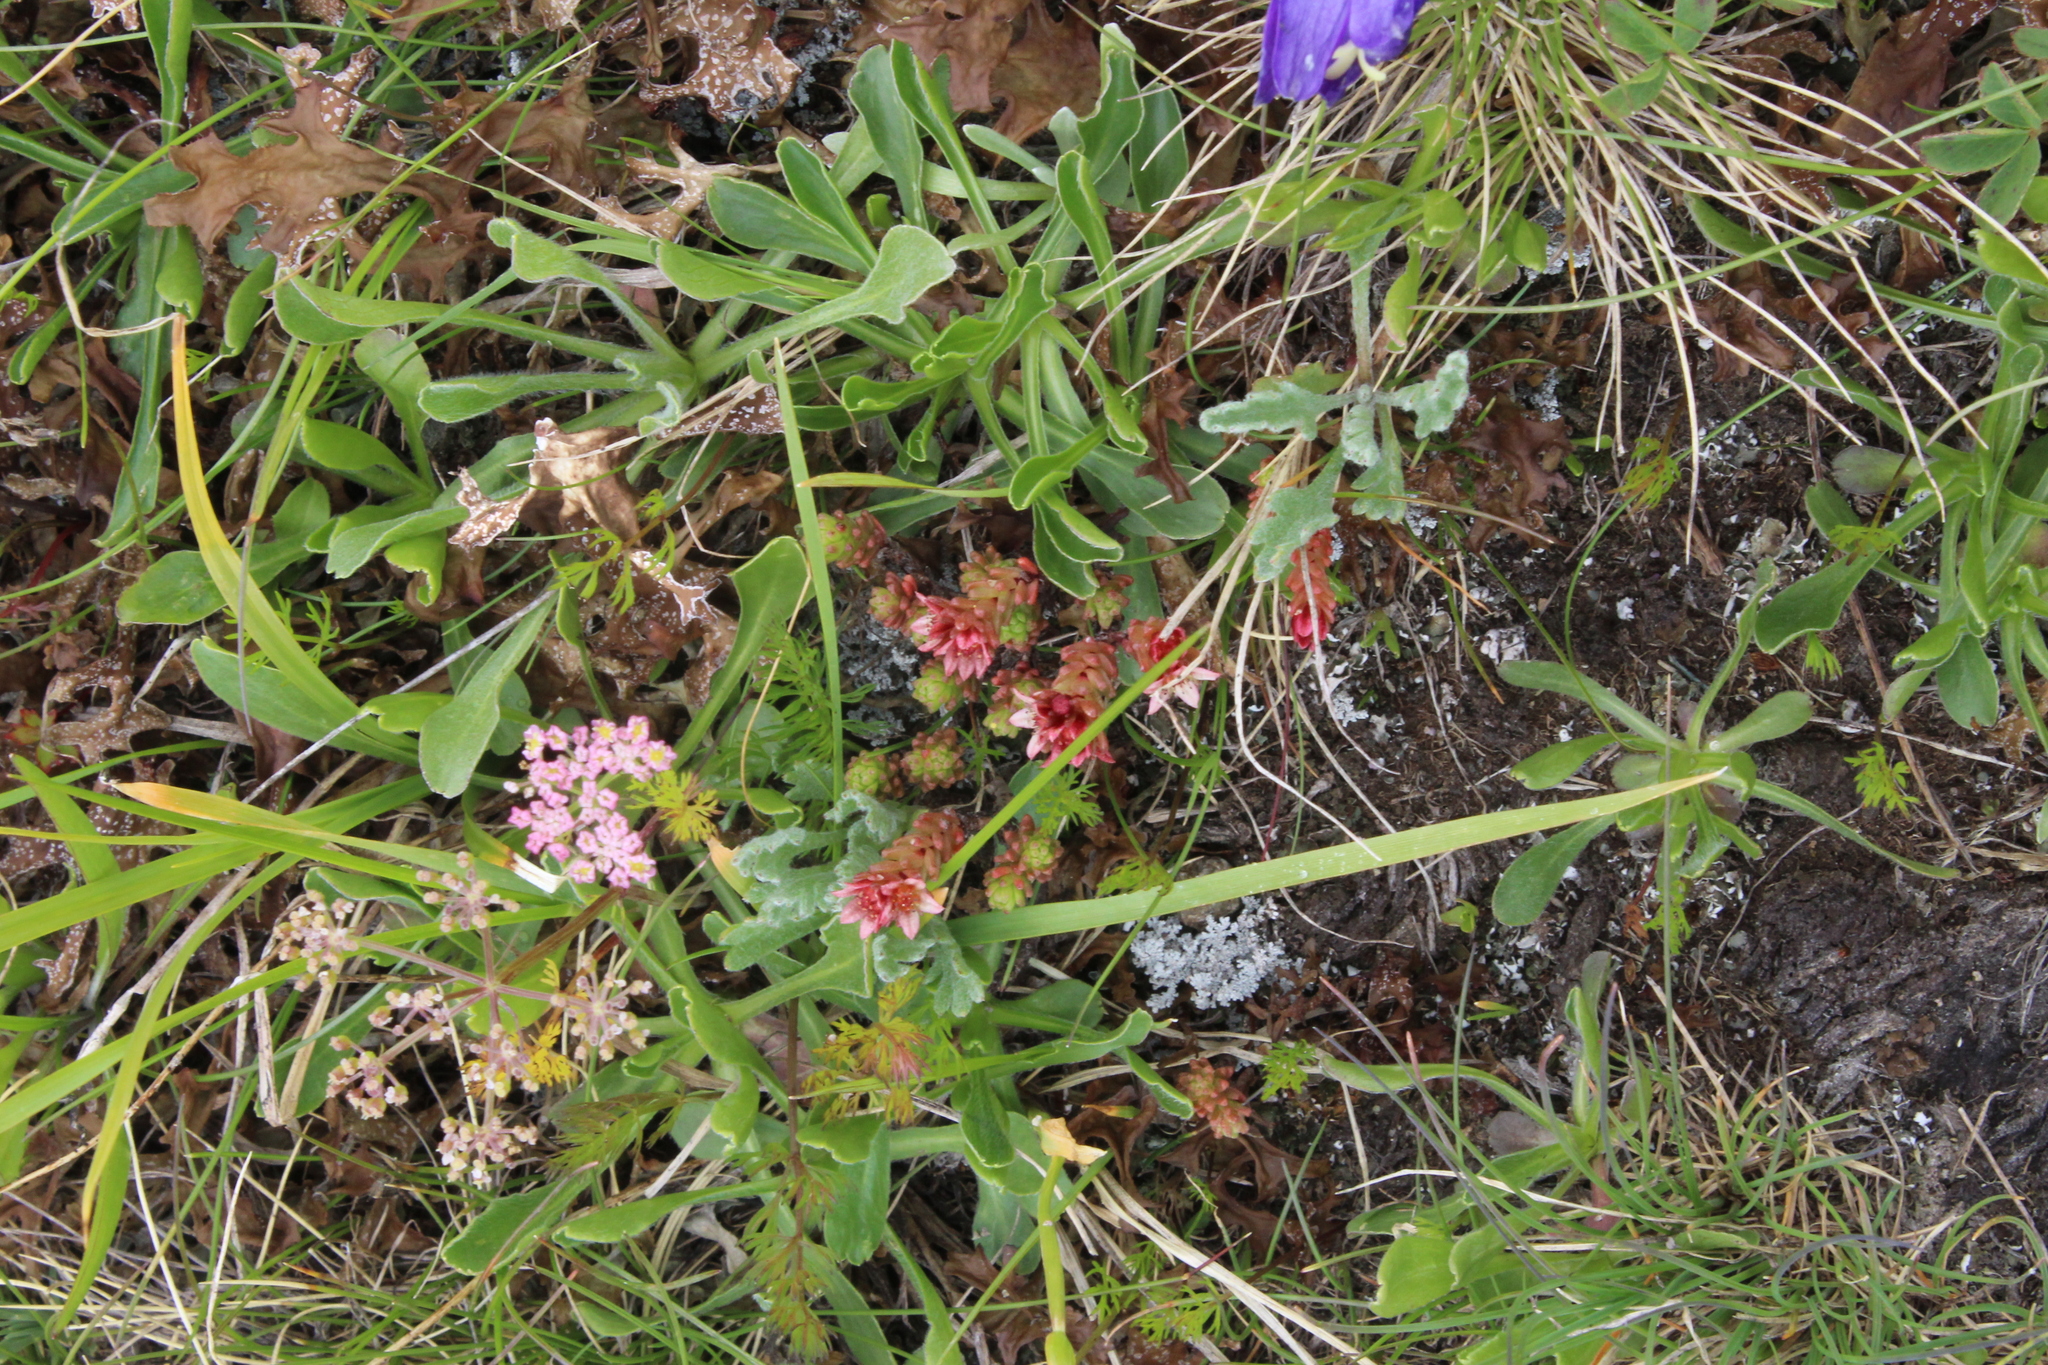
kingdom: Plantae
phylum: Tracheophyta
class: Magnoliopsida
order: Saxifragales
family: Crassulaceae
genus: Sedum
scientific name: Sedum tenellum
